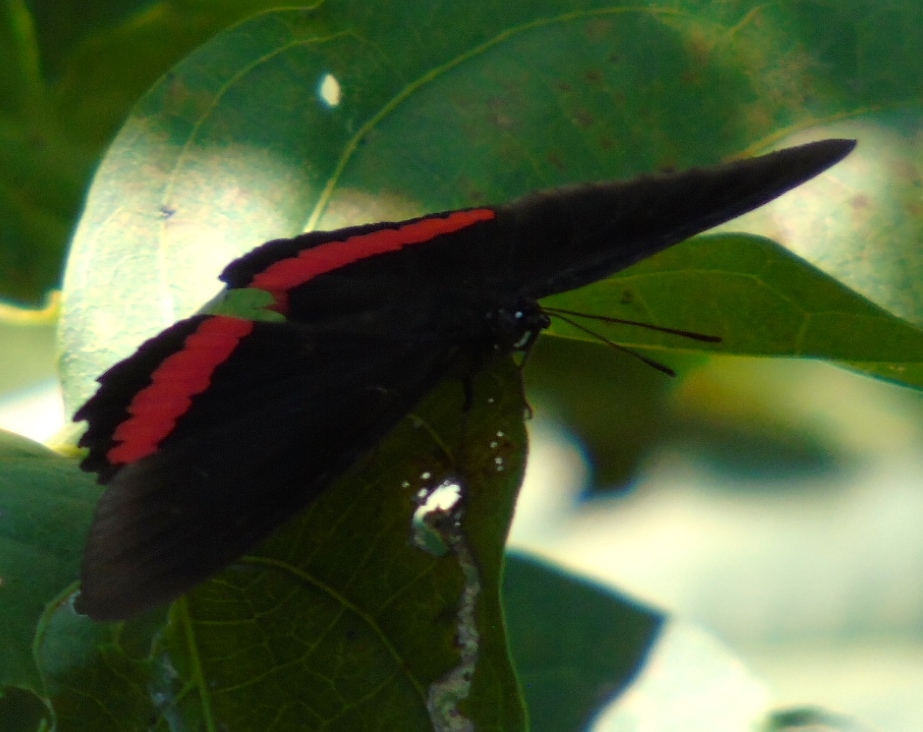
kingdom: Animalia
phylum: Arthropoda
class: Insecta
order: Lepidoptera
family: Nymphalidae
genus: Biblis
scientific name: Biblis
